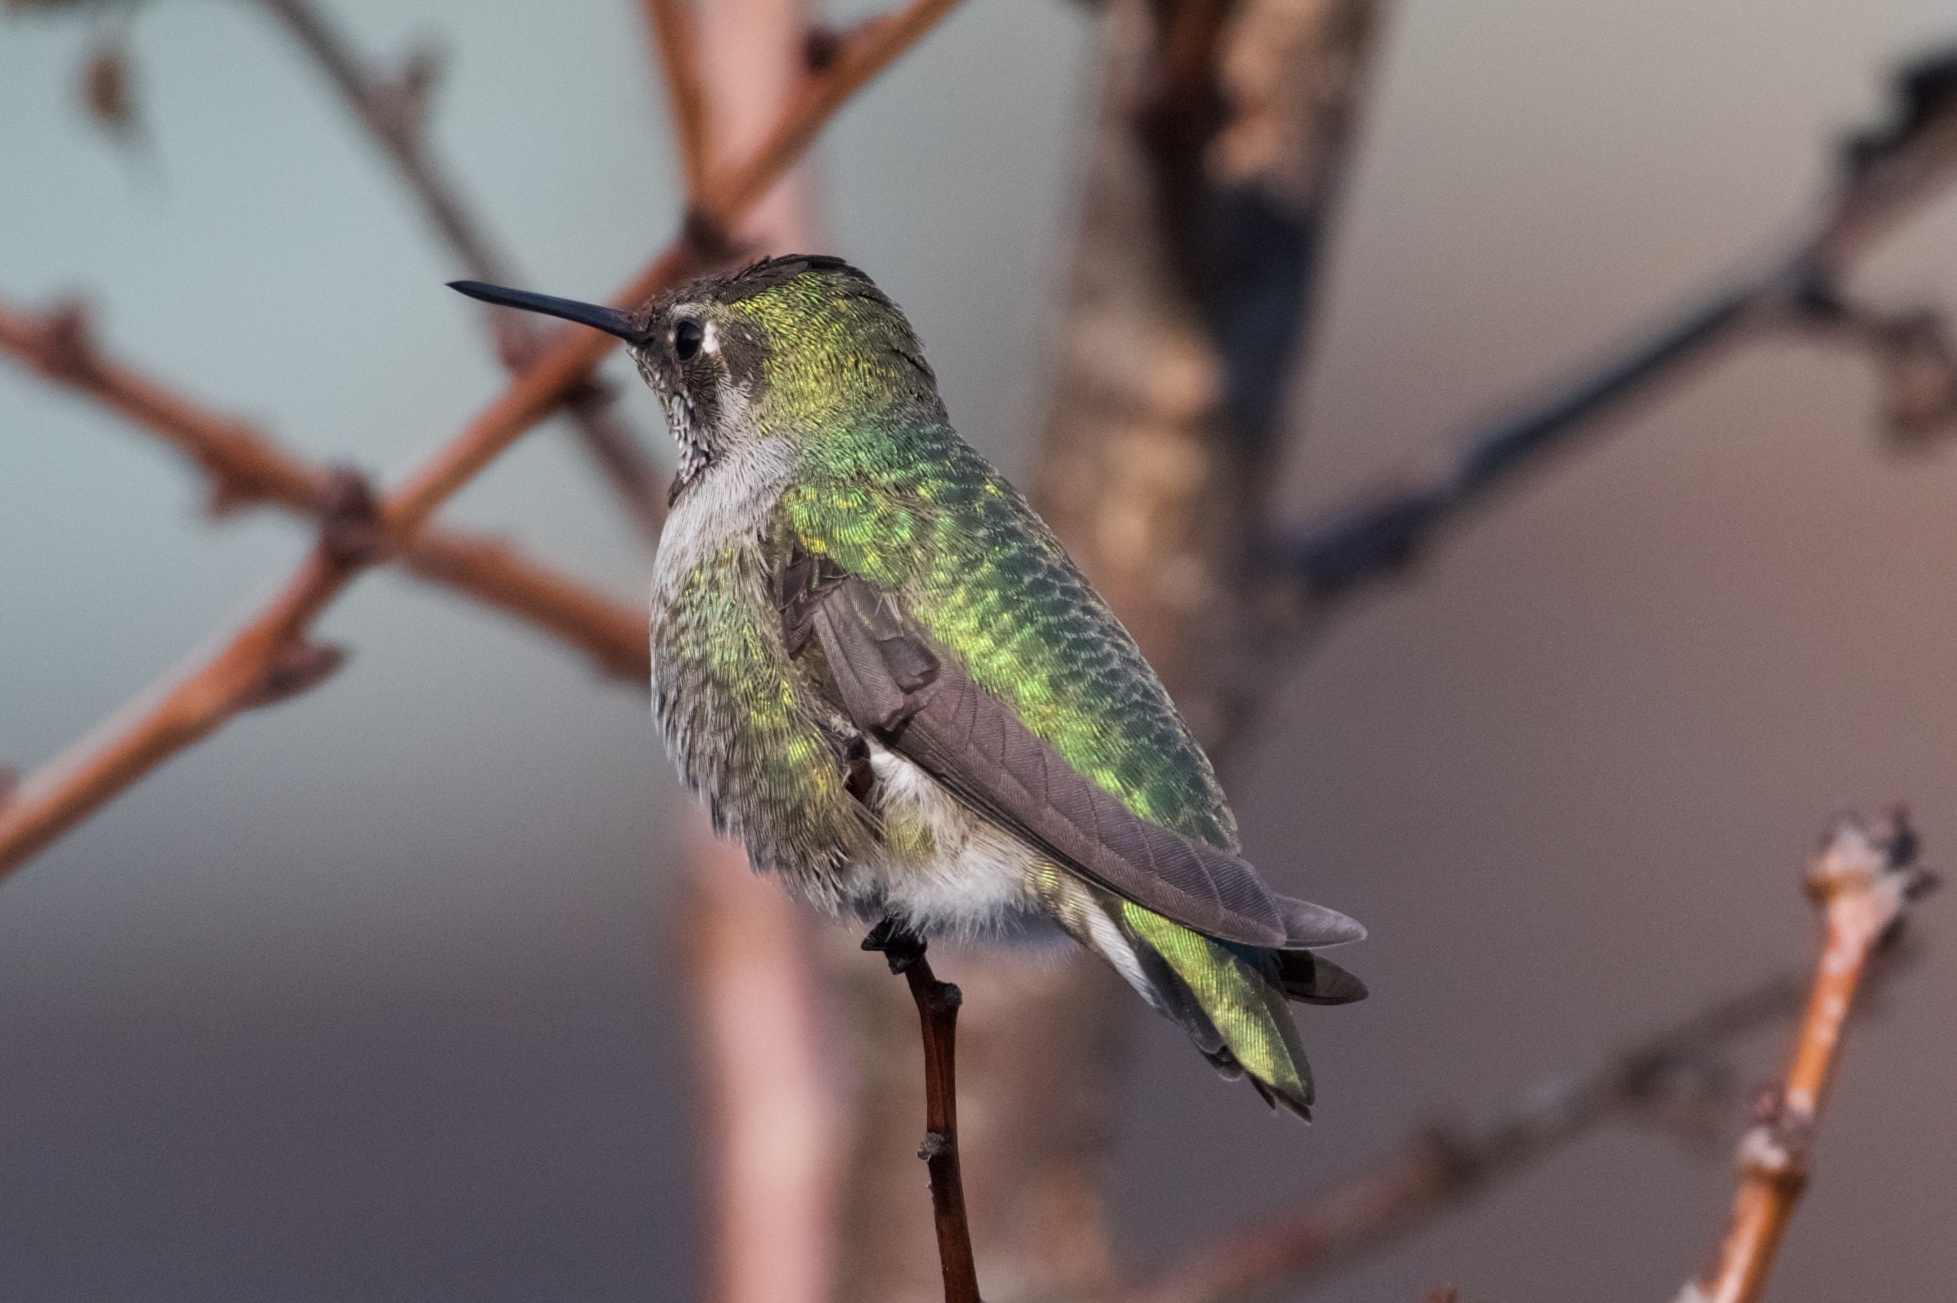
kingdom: Animalia
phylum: Chordata
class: Aves
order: Apodiformes
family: Trochilidae
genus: Calypte
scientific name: Calypte anna
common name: Anna's hummingbird
